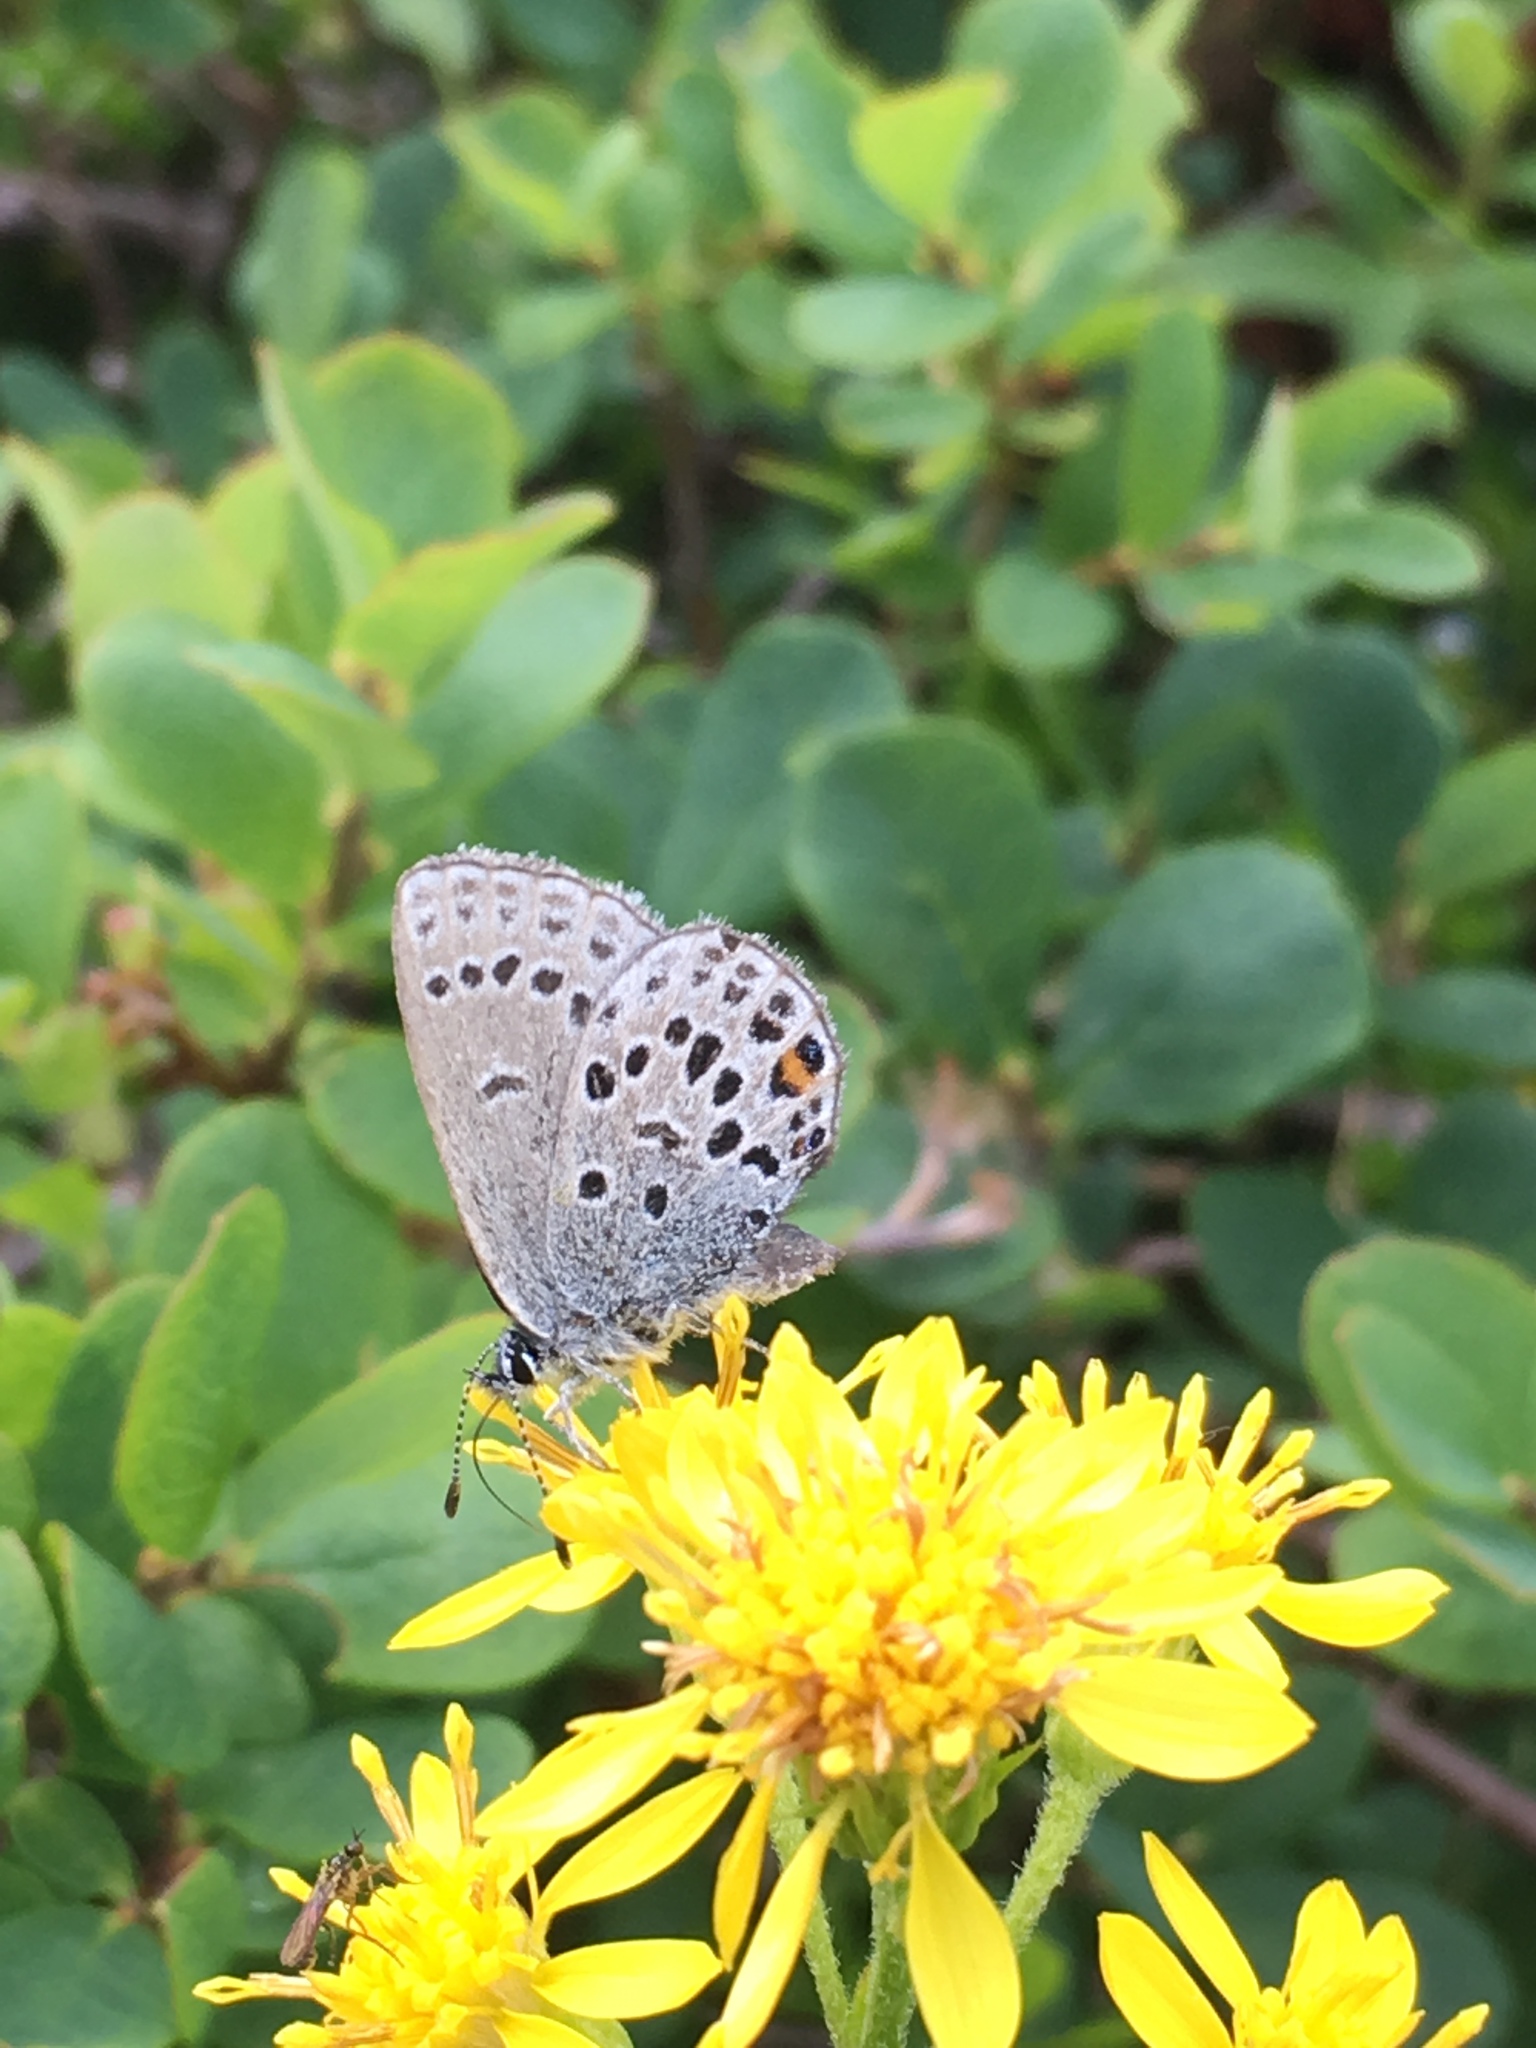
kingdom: Animalia
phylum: Arthropoda
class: Insecta
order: Lepidoptera
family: Lycaenidae
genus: Vacciniina
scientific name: Vacciniina optilete
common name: Cranberry blue
